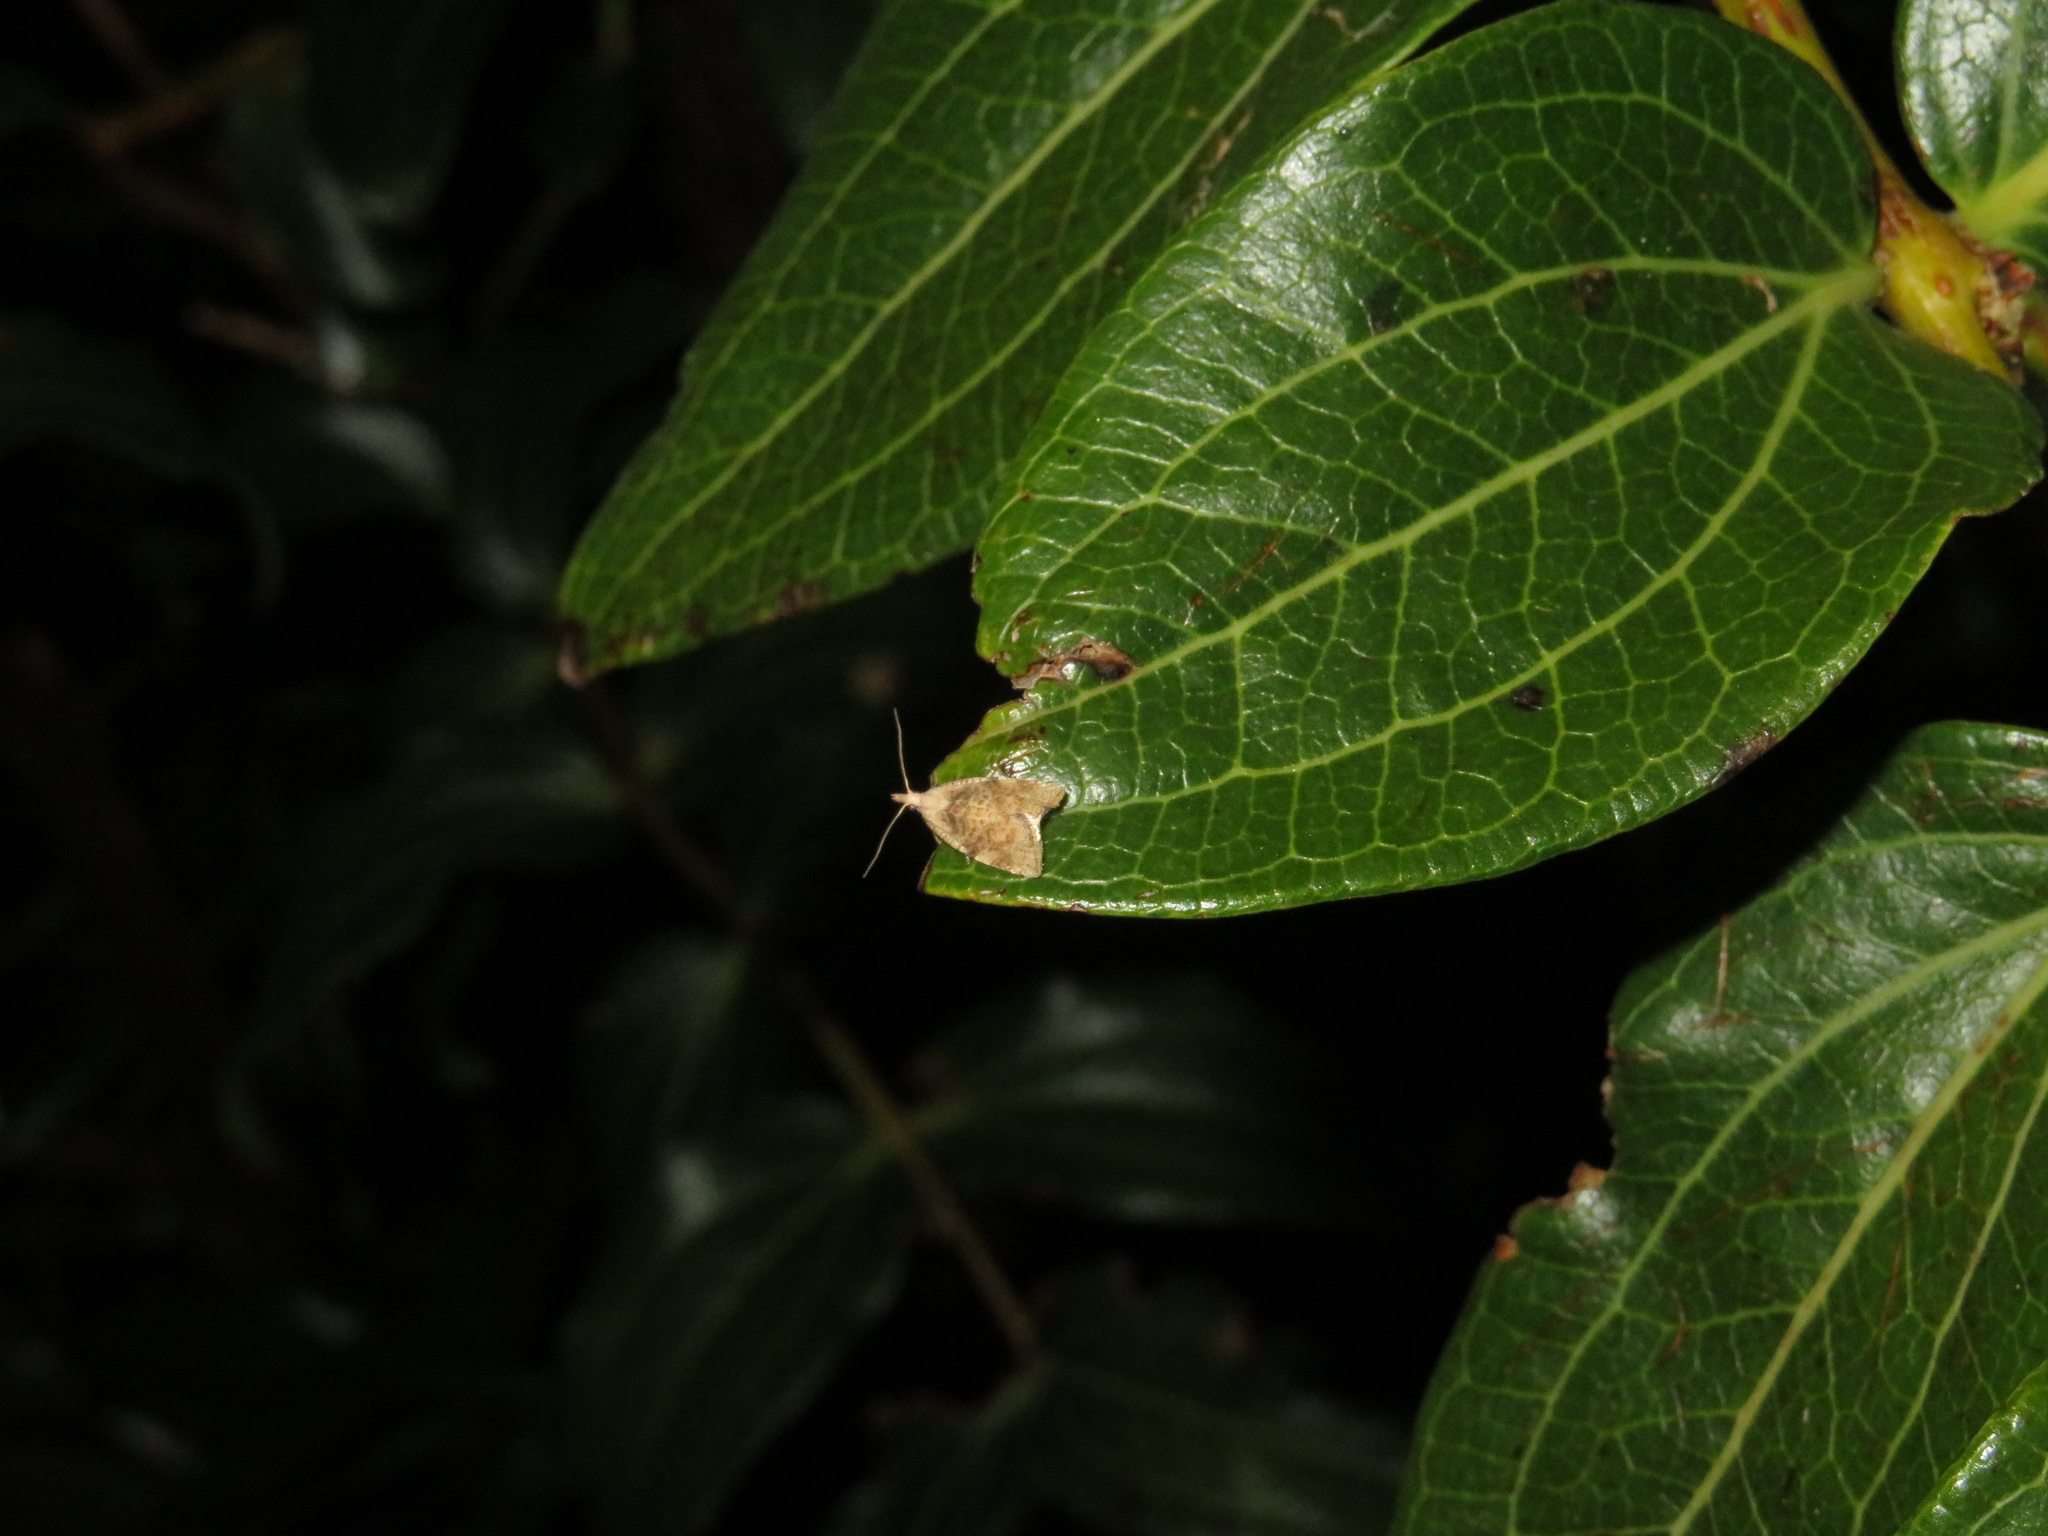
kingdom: Animalia
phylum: Arthropoda
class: Insecta
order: Lepidoptera
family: Tortricidae
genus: Catamacta
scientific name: Catamacta gavisana
